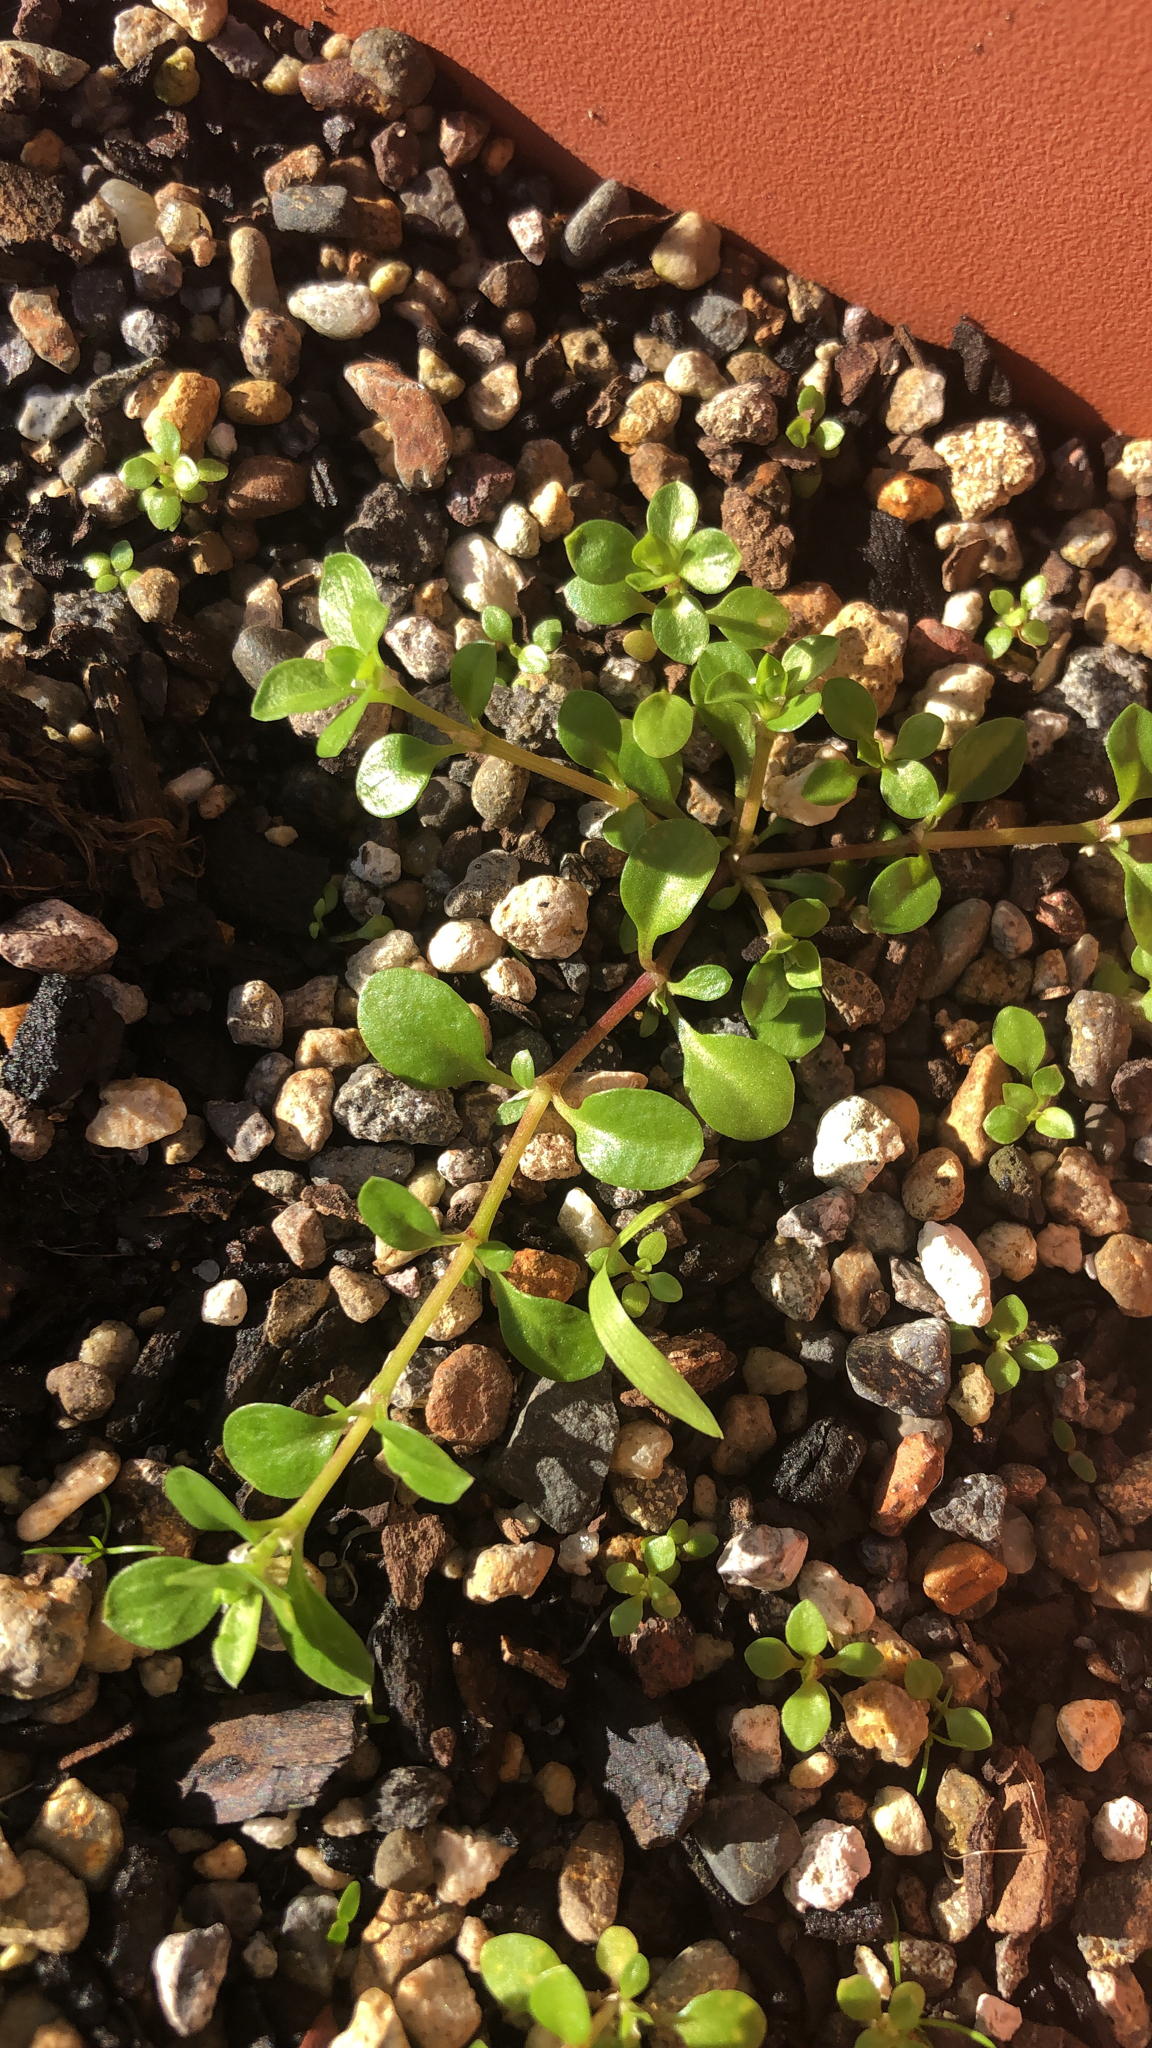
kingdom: Plantae
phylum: Tracheophyta
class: Magnoliopsida
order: Caryophyllales
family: Caryophyllaceae
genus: Polycarpon
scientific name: Polycarpon tetraphyllum
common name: Four-leaved all-seed
